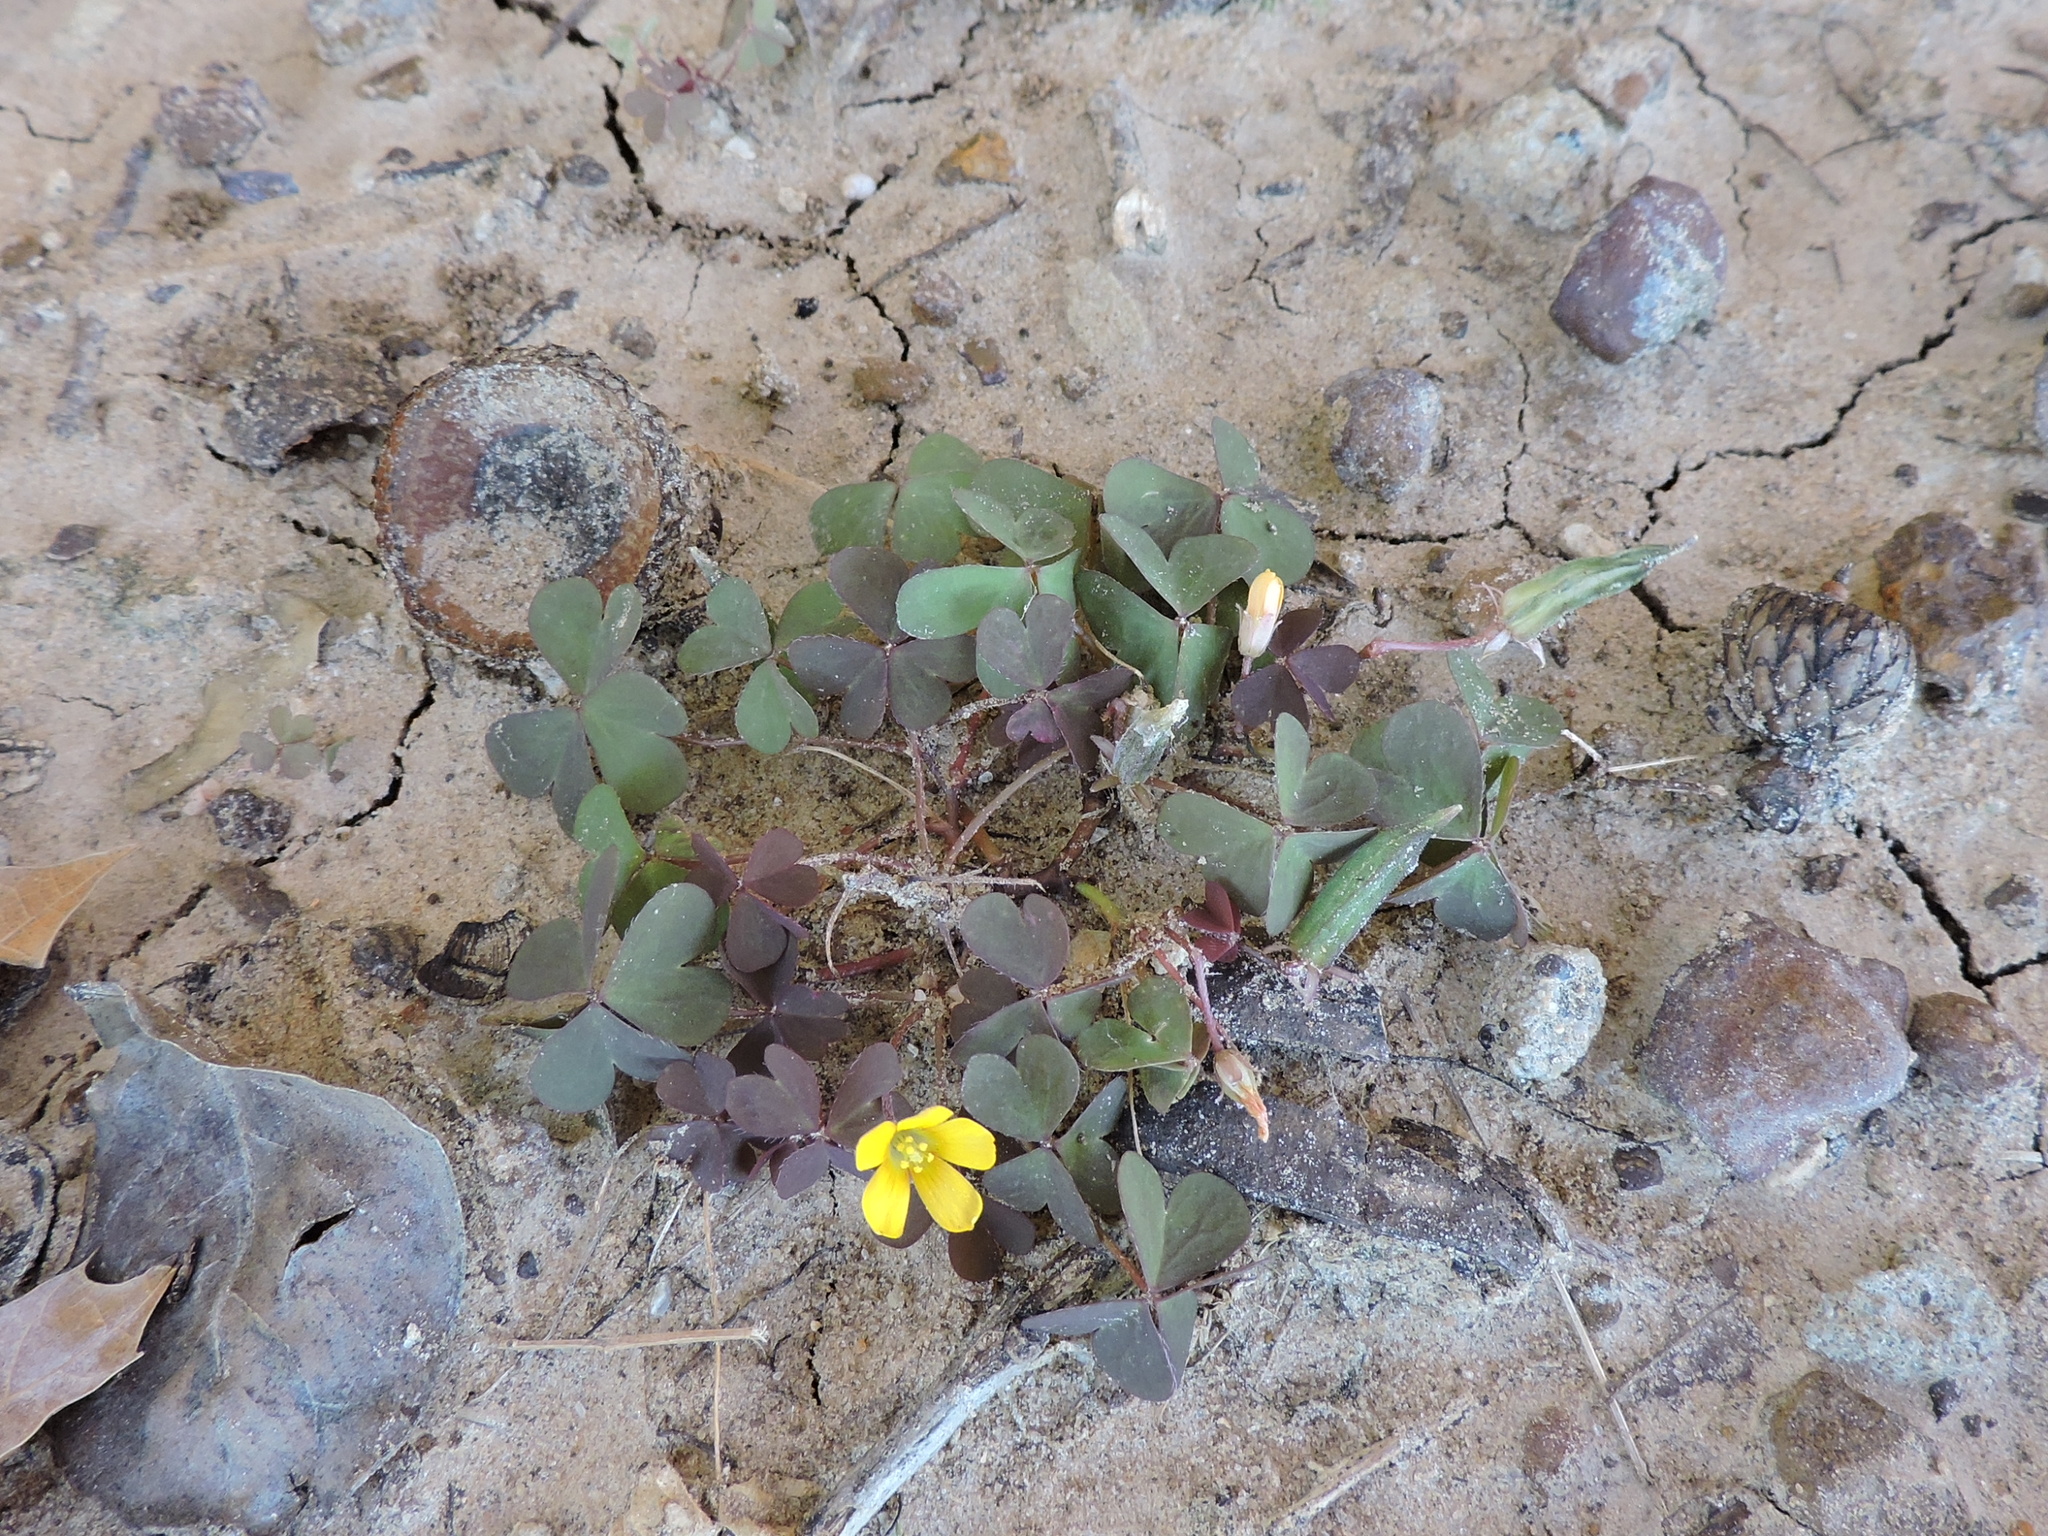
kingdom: Plantae
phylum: Tracheophyta
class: Magnoliopsida
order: Oxalidales
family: Oxalidaceae
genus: Oxalis
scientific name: Oxalis corniculata
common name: Procumbent yellow-sorrel
